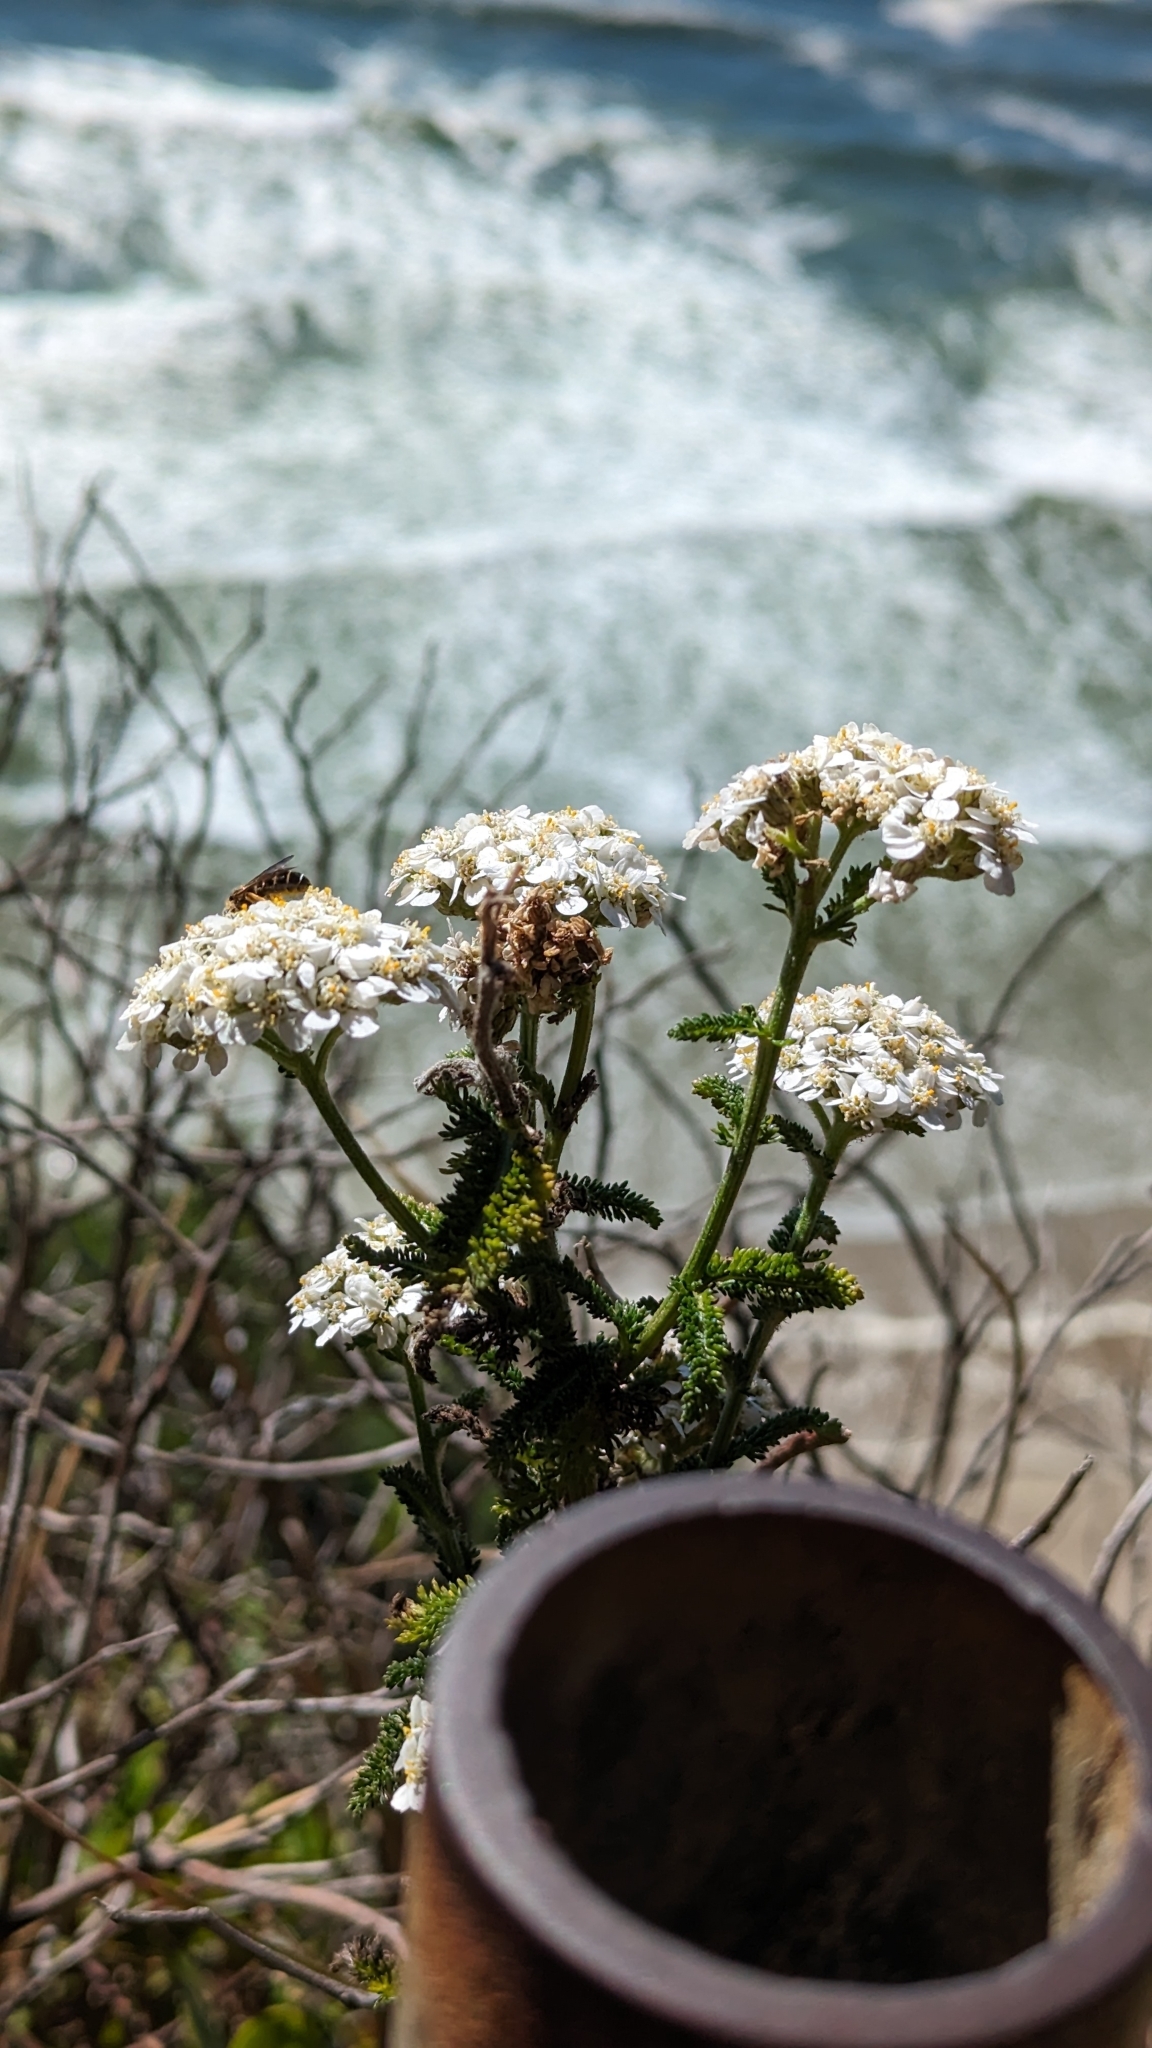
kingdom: Plantae
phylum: Tracheophyta
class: Magnoliopsida
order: Asterales
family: Asteraceae
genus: Achillea
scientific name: Achillea millefolium
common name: Yarrow
